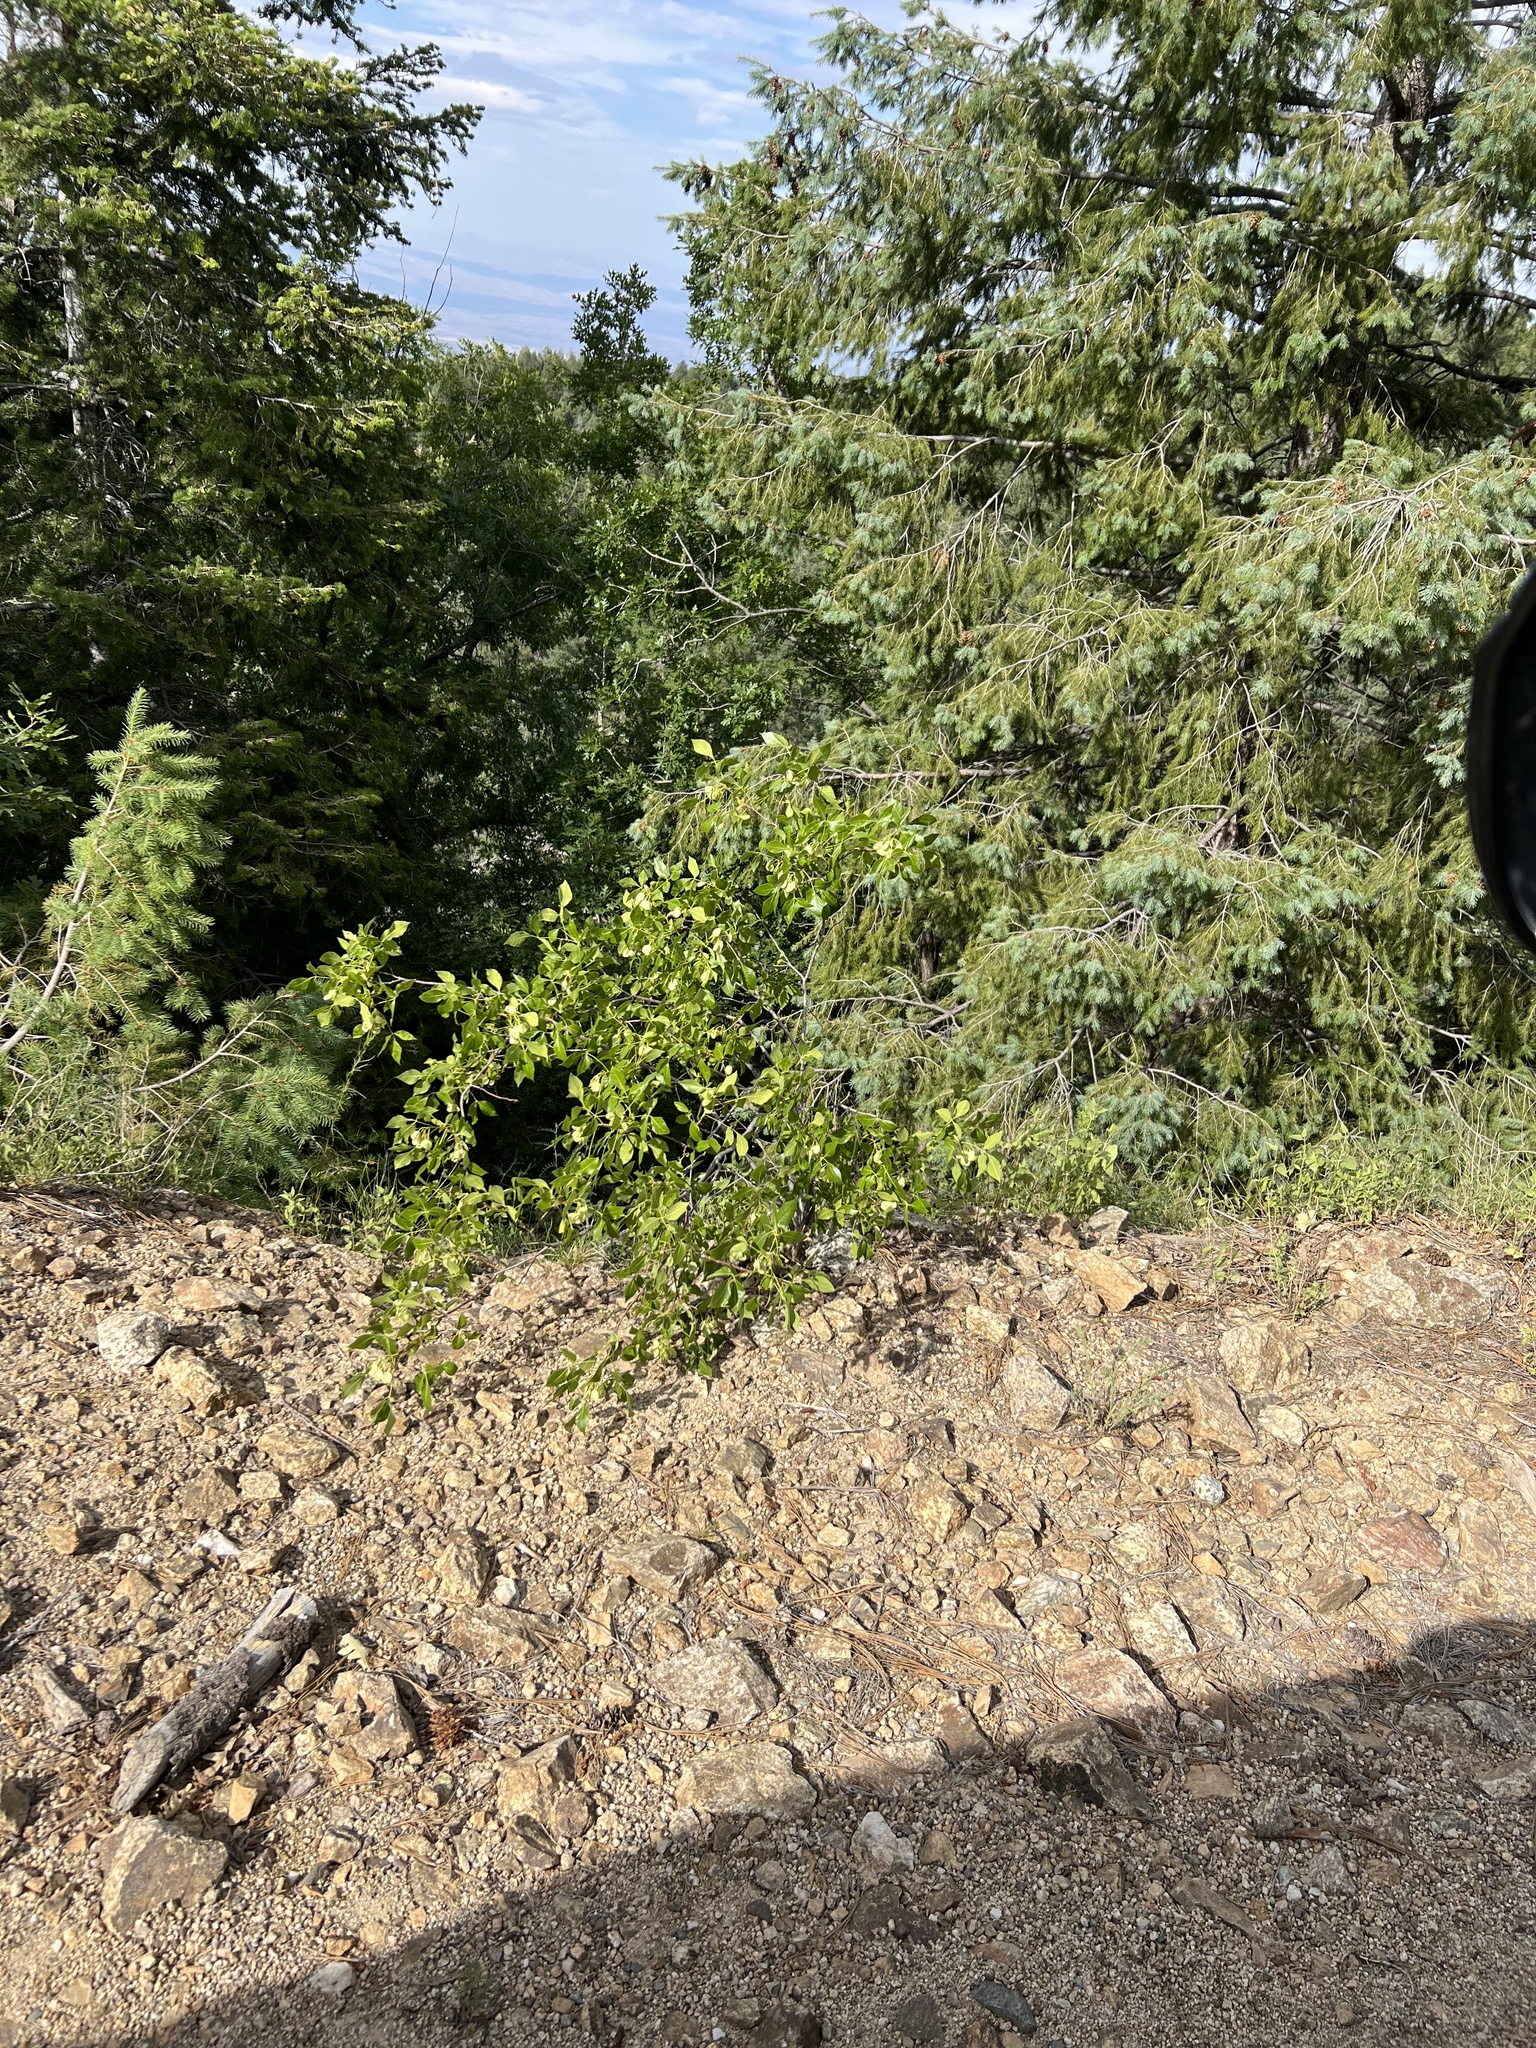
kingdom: Plantae
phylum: Tracheophyta
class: Magnoliopsida
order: Sapindales
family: Rutaceae
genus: Ptelea
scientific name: Ptelea trifoliata
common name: Common hop-tree
